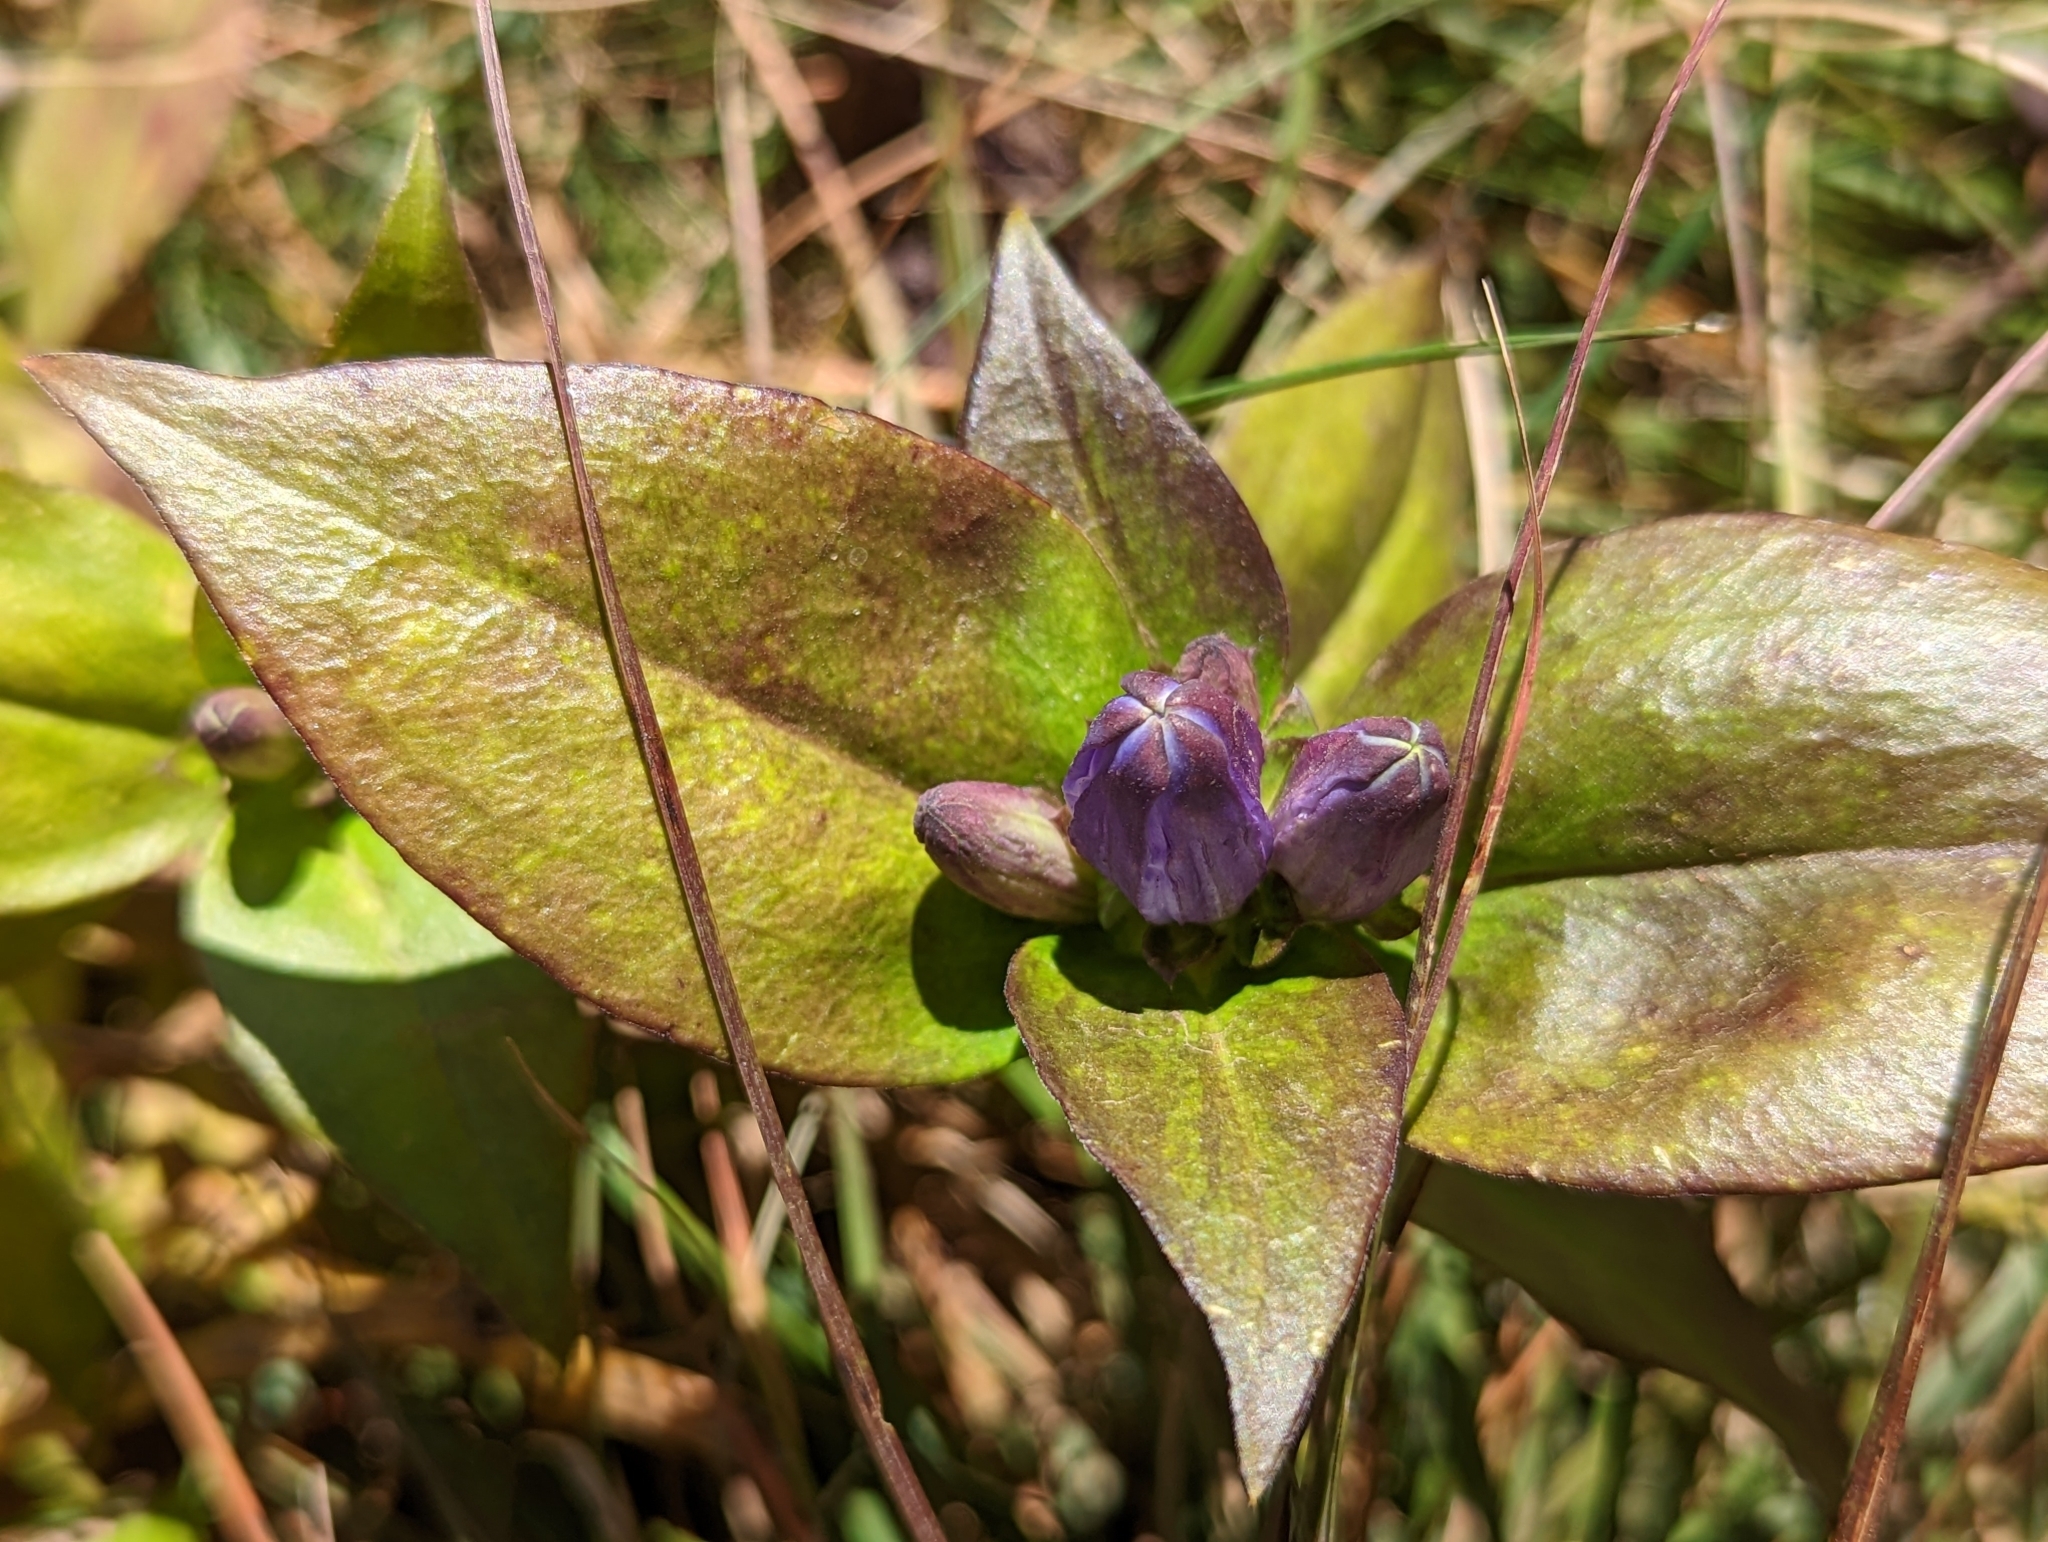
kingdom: Plantae
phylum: Tracheophyta
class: Magnoliopsida
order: Gentianales
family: Gentianaceae
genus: Gentiana
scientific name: Gentiana clausa
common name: Blind gentian
